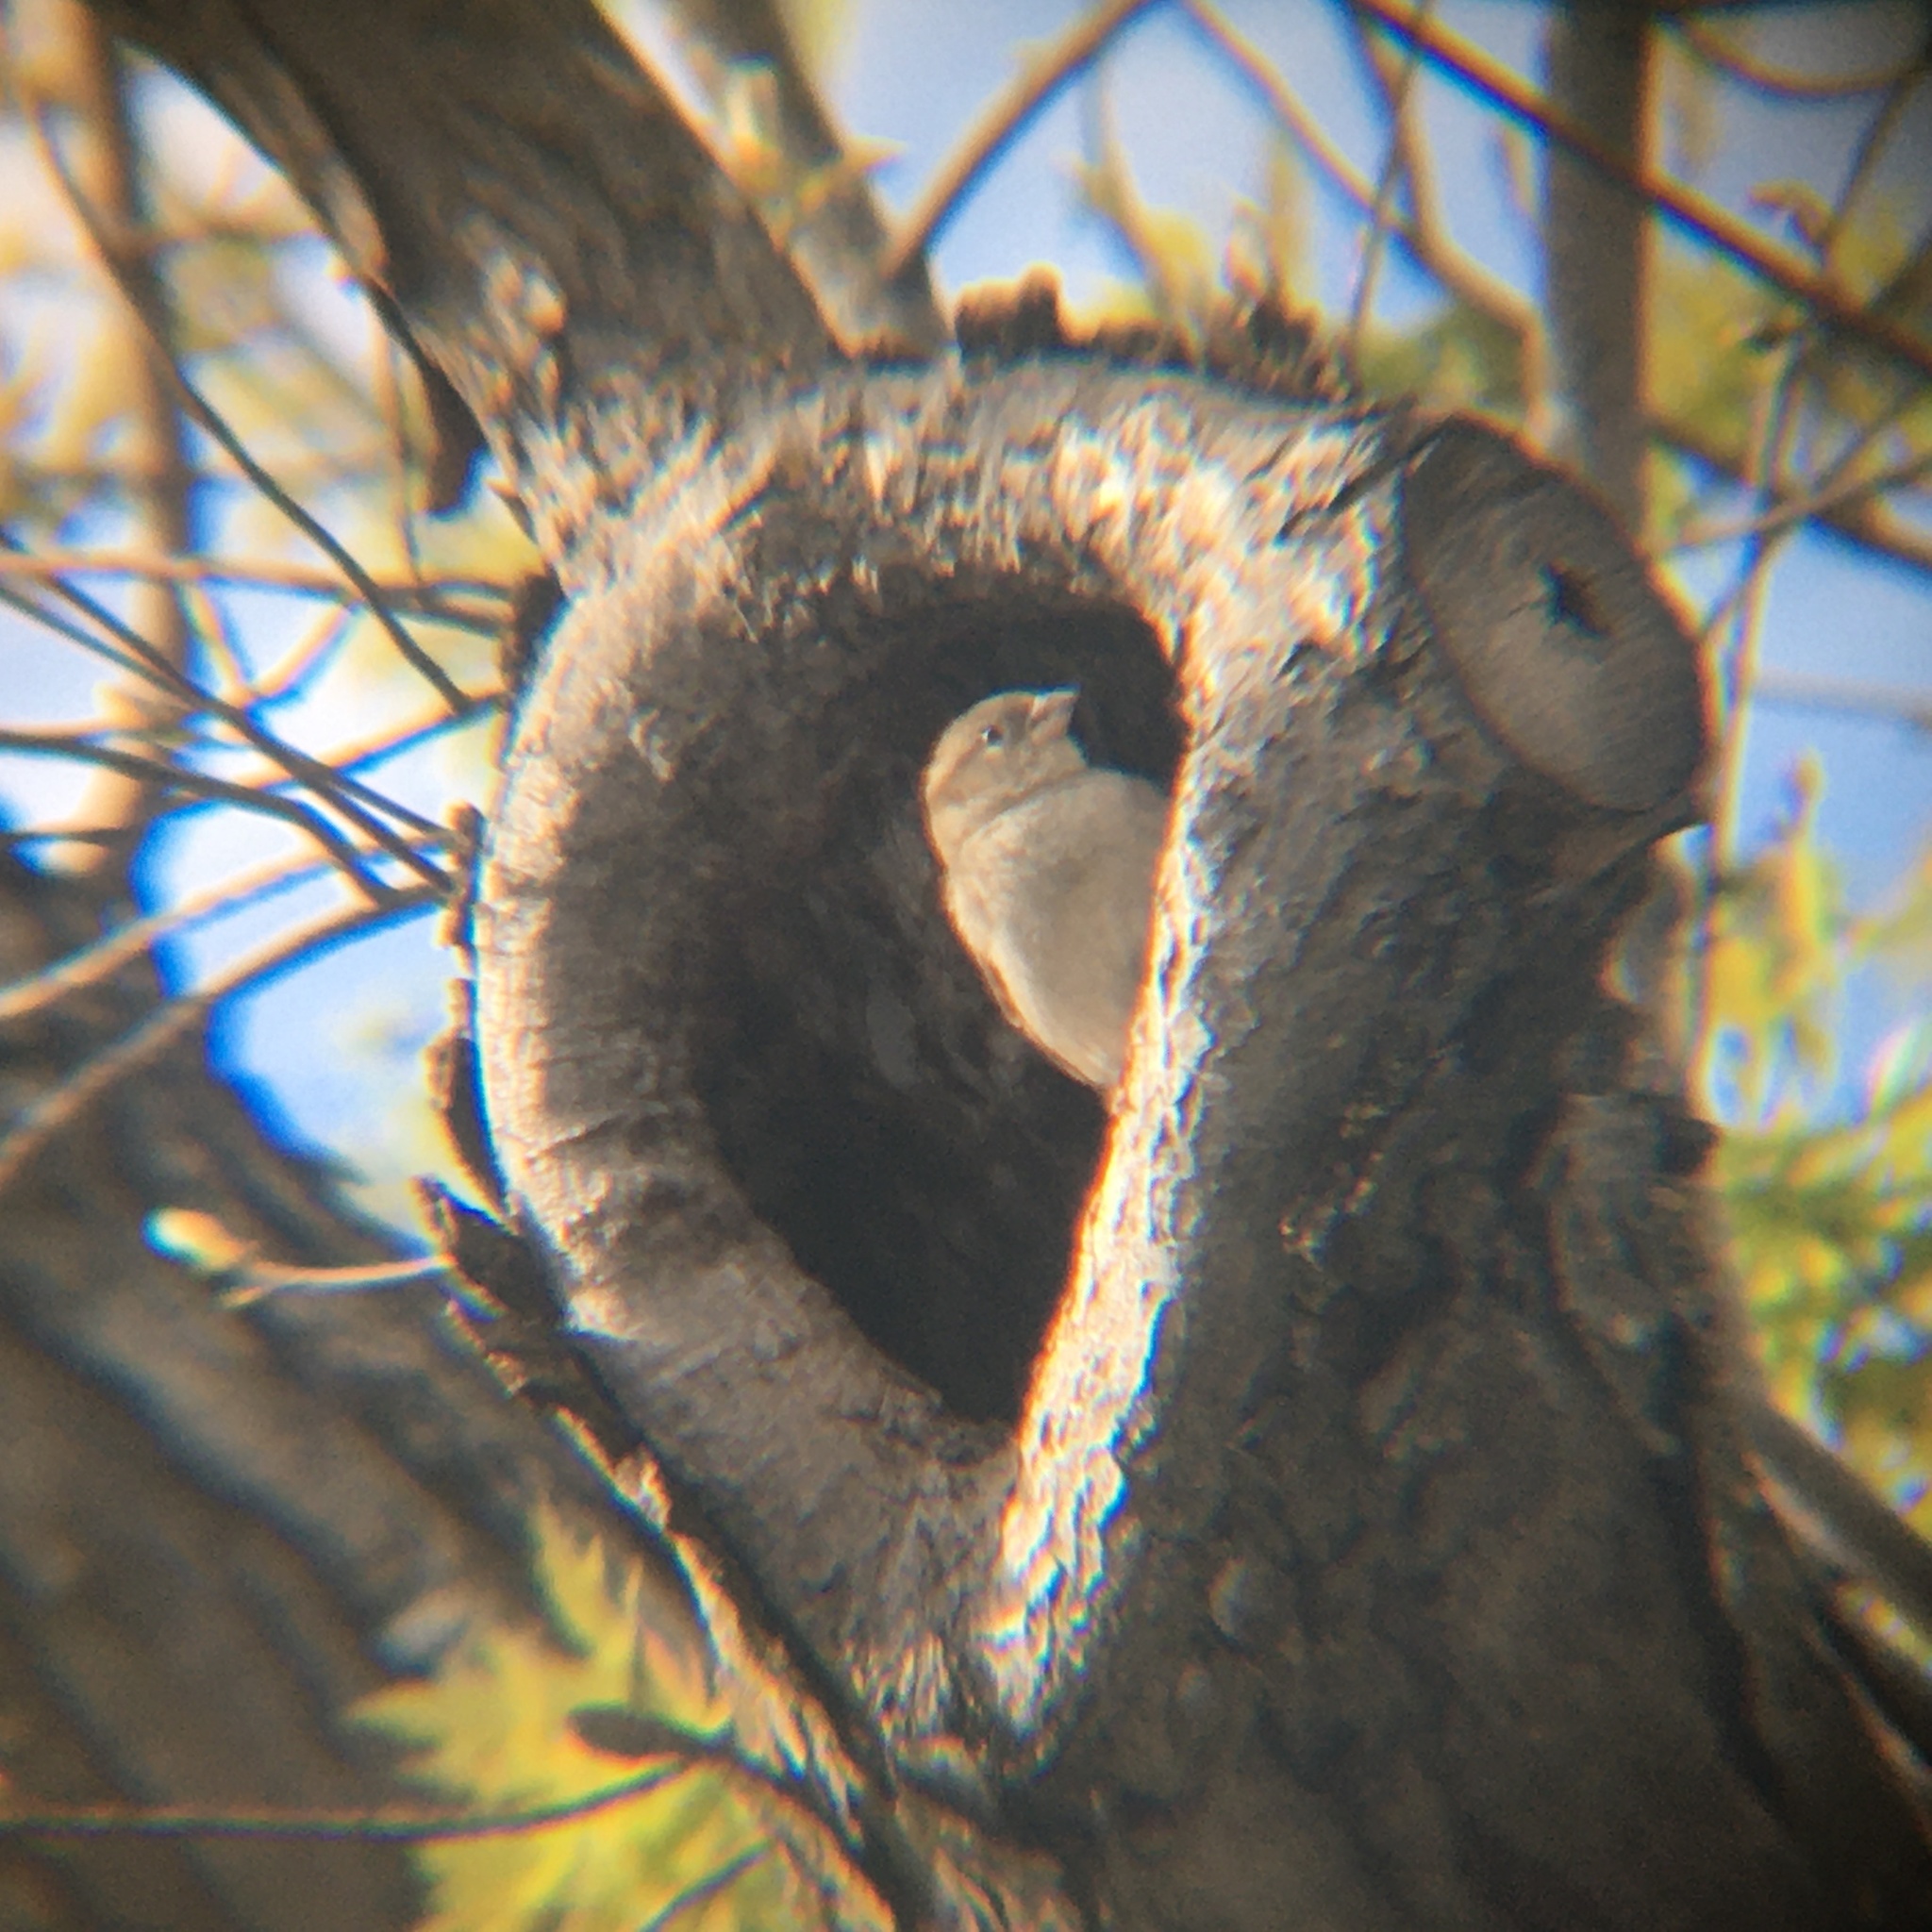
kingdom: Animalia
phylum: Chordata
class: Aves
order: Passeriformes
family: Passeridae
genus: Passer
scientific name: Passer domesticus
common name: House sparrow
